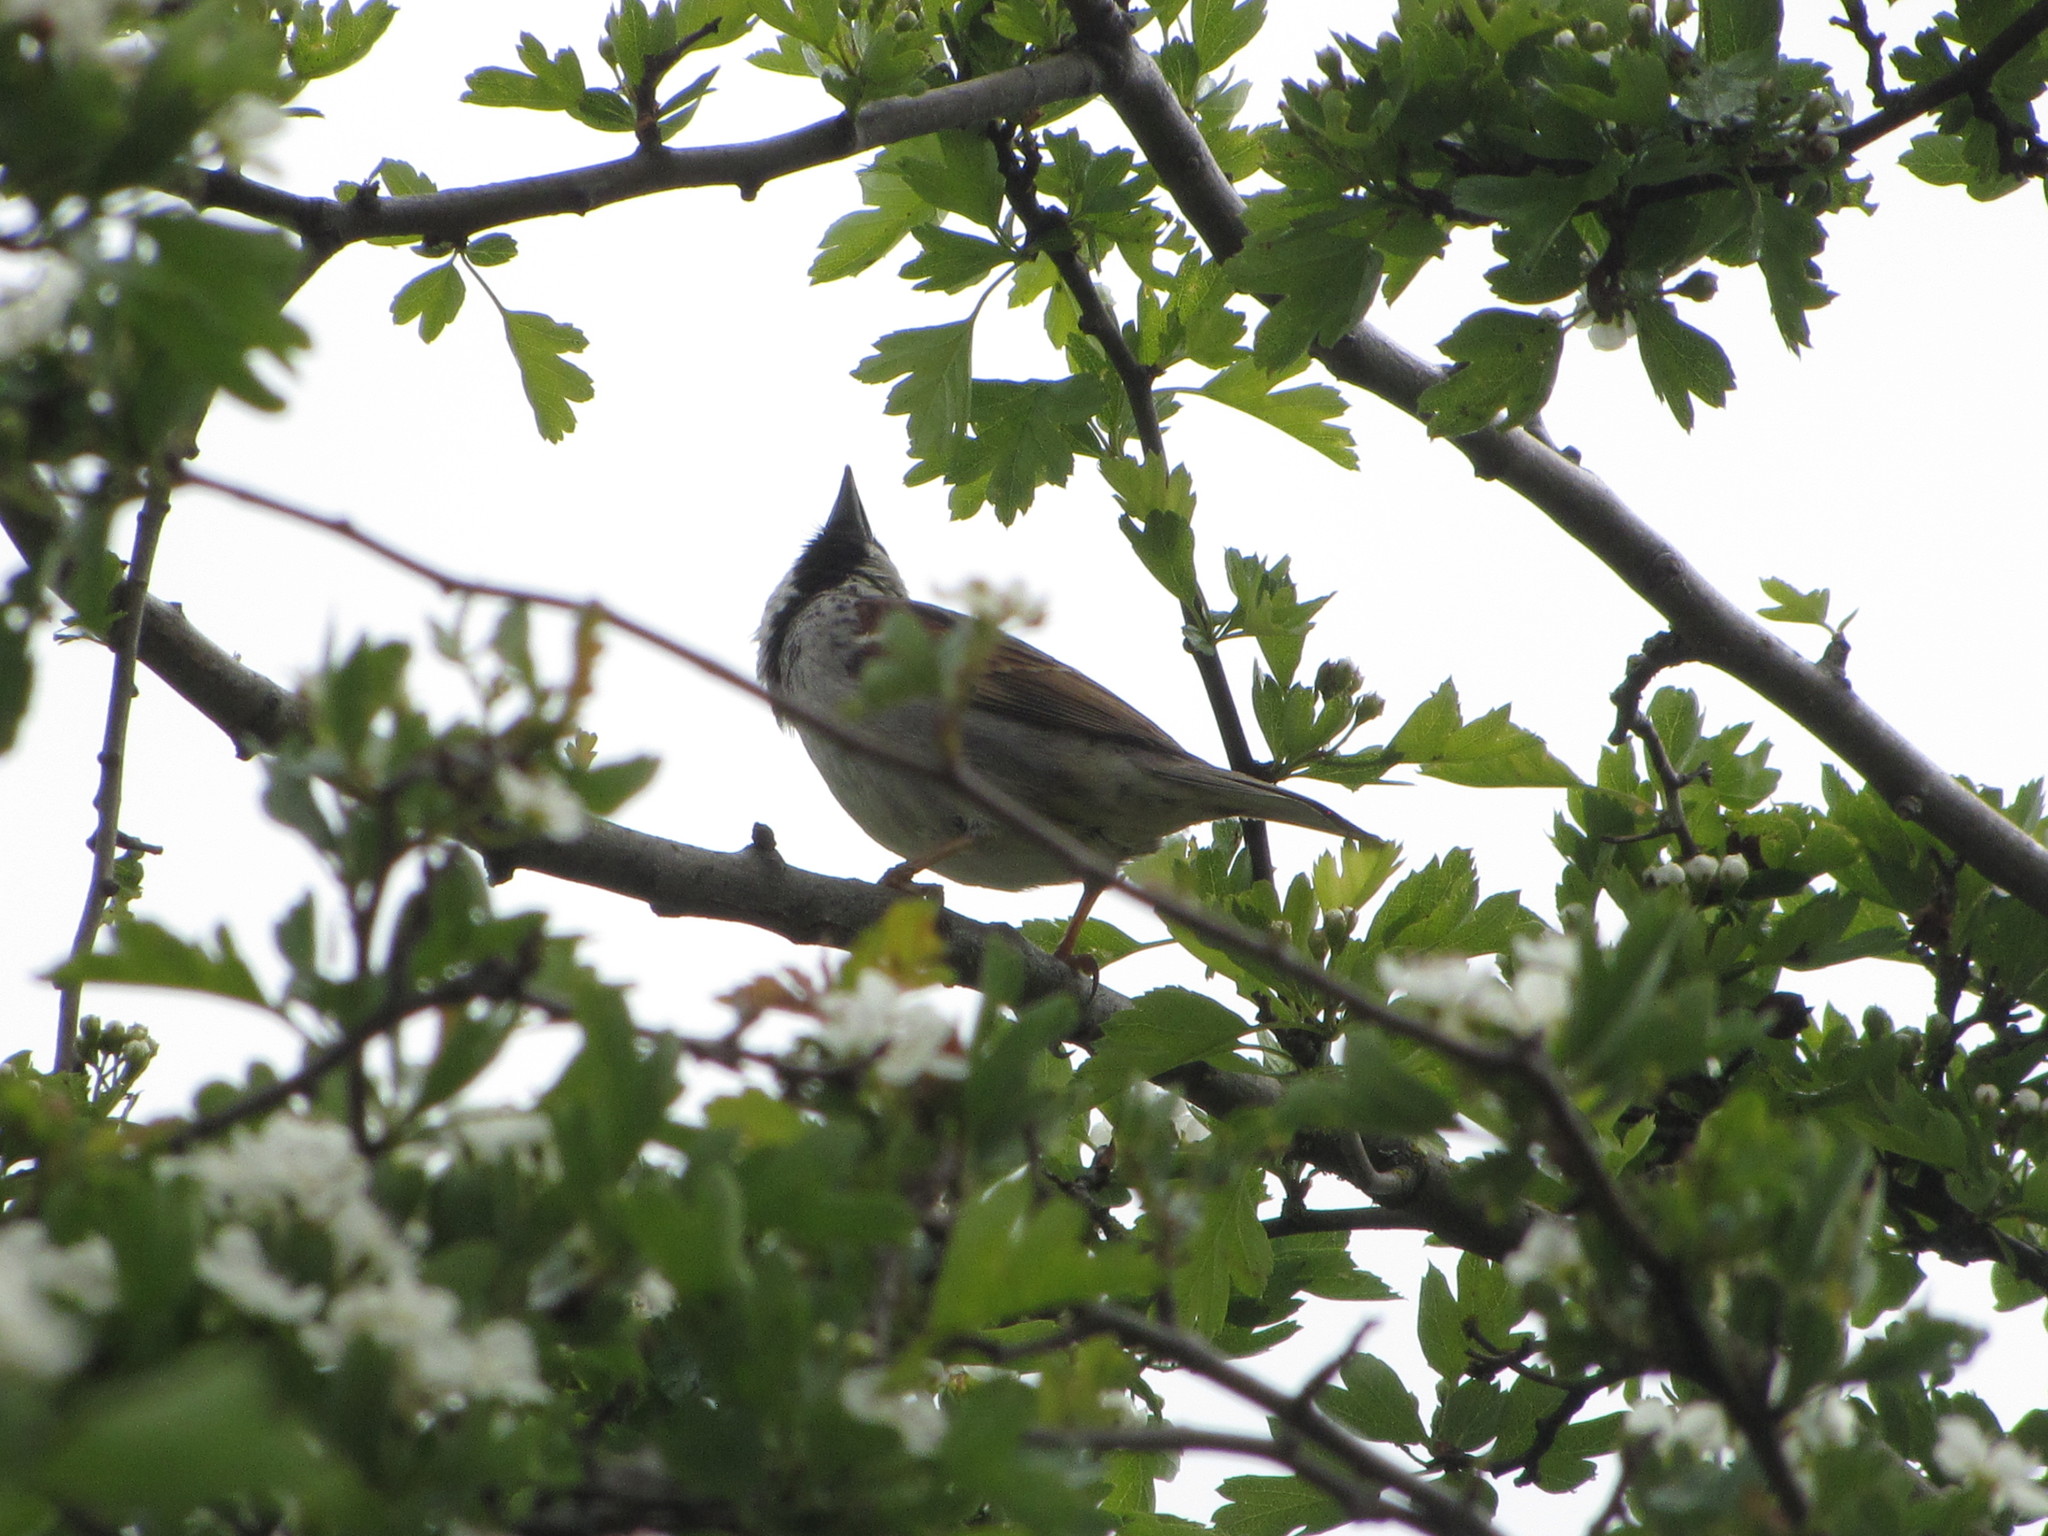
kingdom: Animalia
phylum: Chordata
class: Aves
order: Passeriformes
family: Passeridae
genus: Passer
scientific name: Passer domesticus
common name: House sparrow
